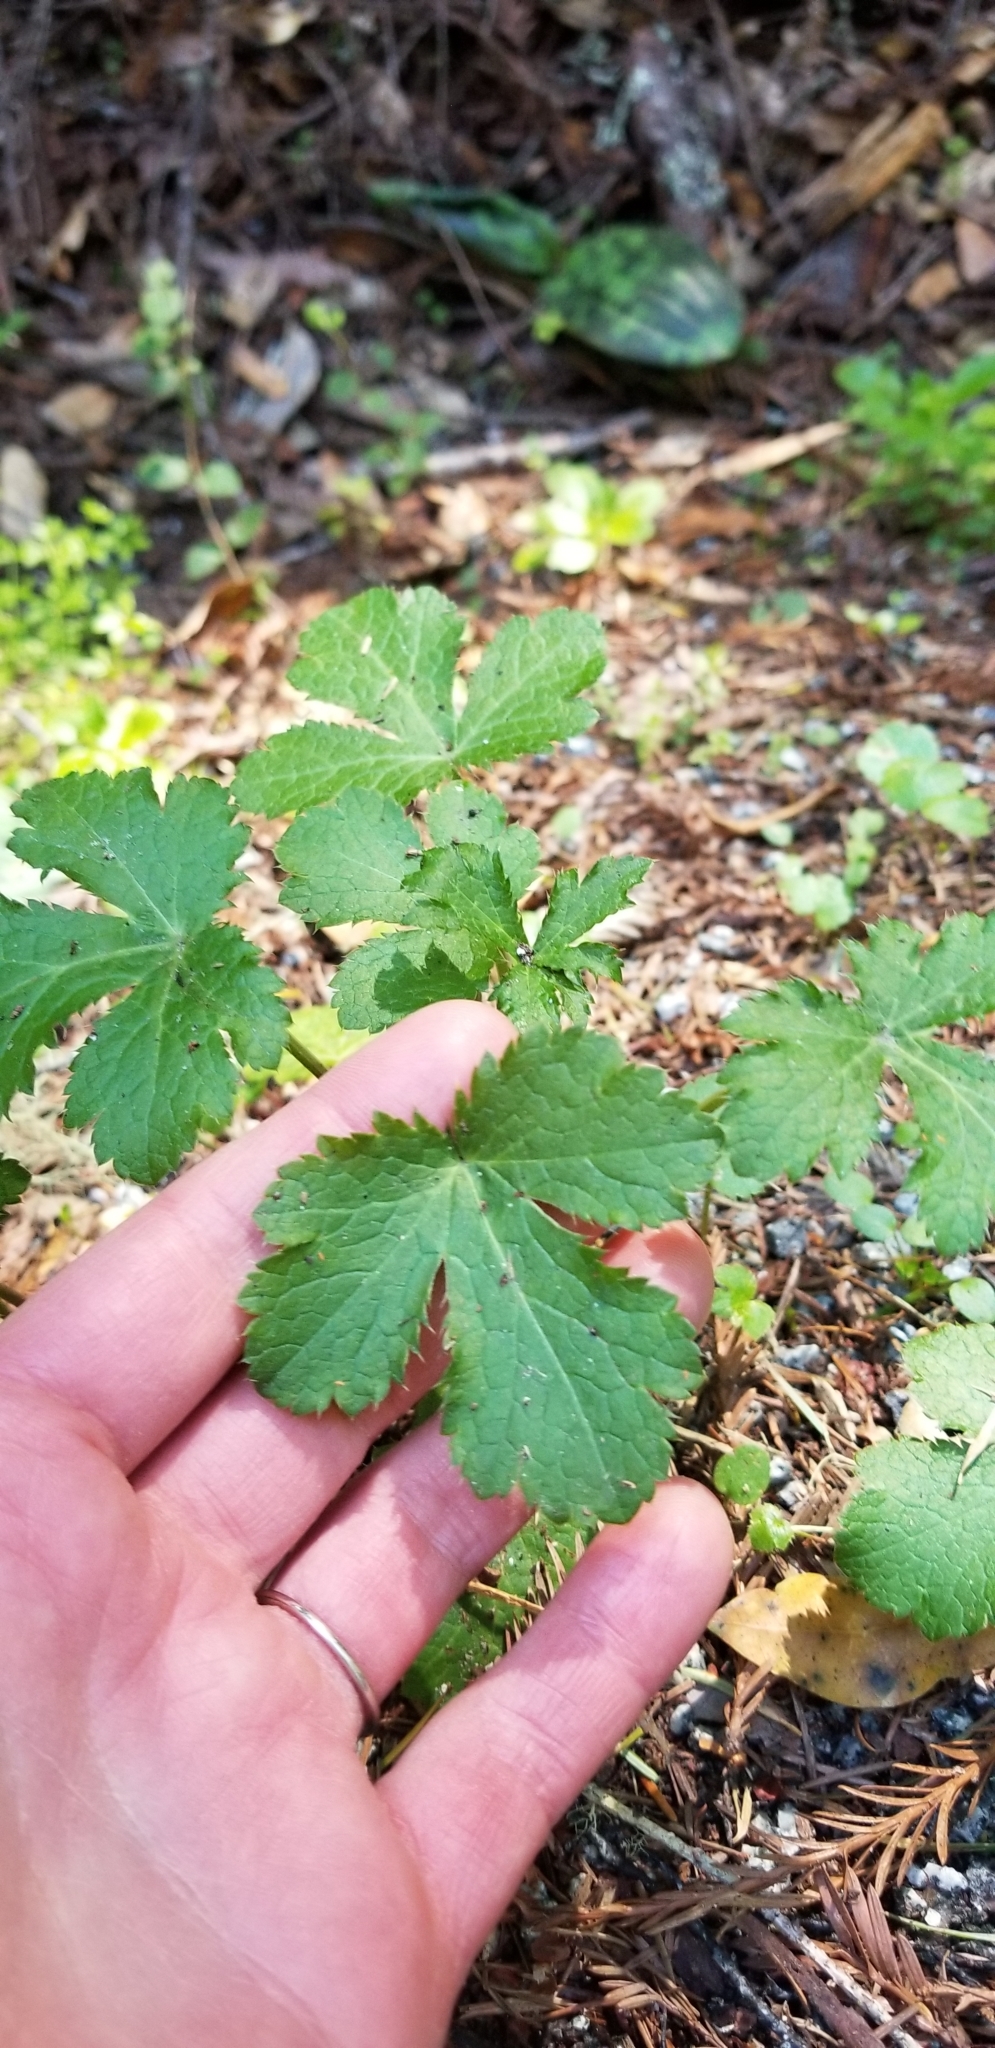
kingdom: Plantae
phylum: Tracheophyta
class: Magnoliopsida
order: Apiales
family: Apiaceae
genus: Sanicula
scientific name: Sanicula crassicaulis
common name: Western snakeroot
